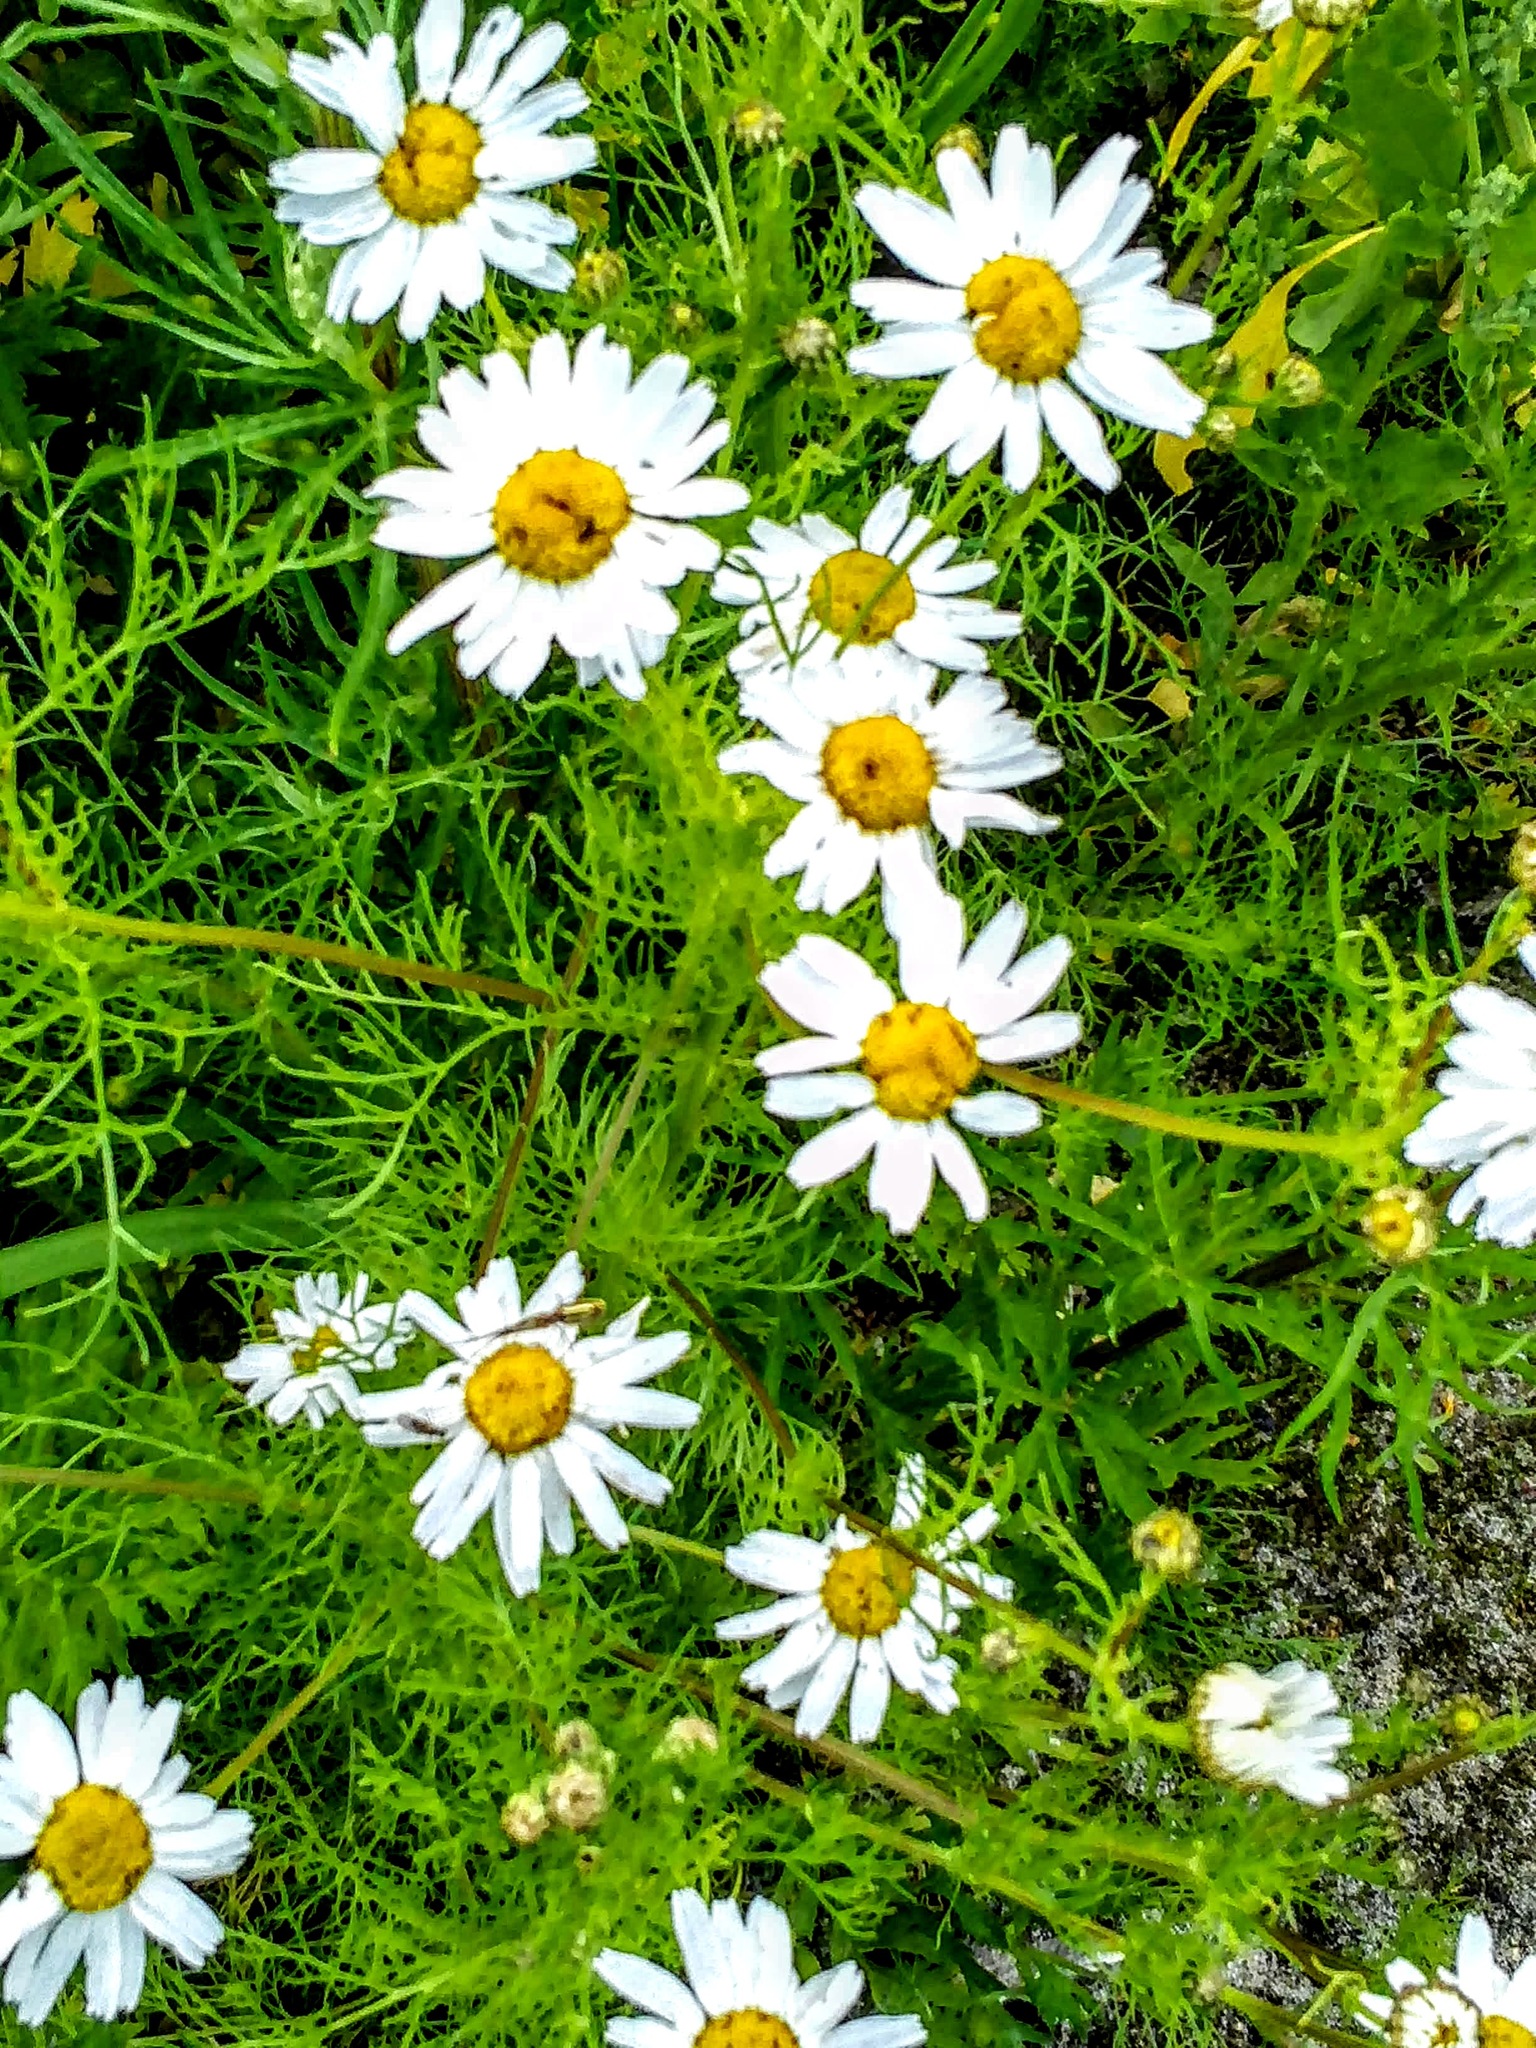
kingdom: Plantae
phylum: Tracheophyta
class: Magnoliopsida
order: Asterales
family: Asteraceae
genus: Tripleurospermum
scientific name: Tripleurospermum inodorum
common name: Scentless mayweed
